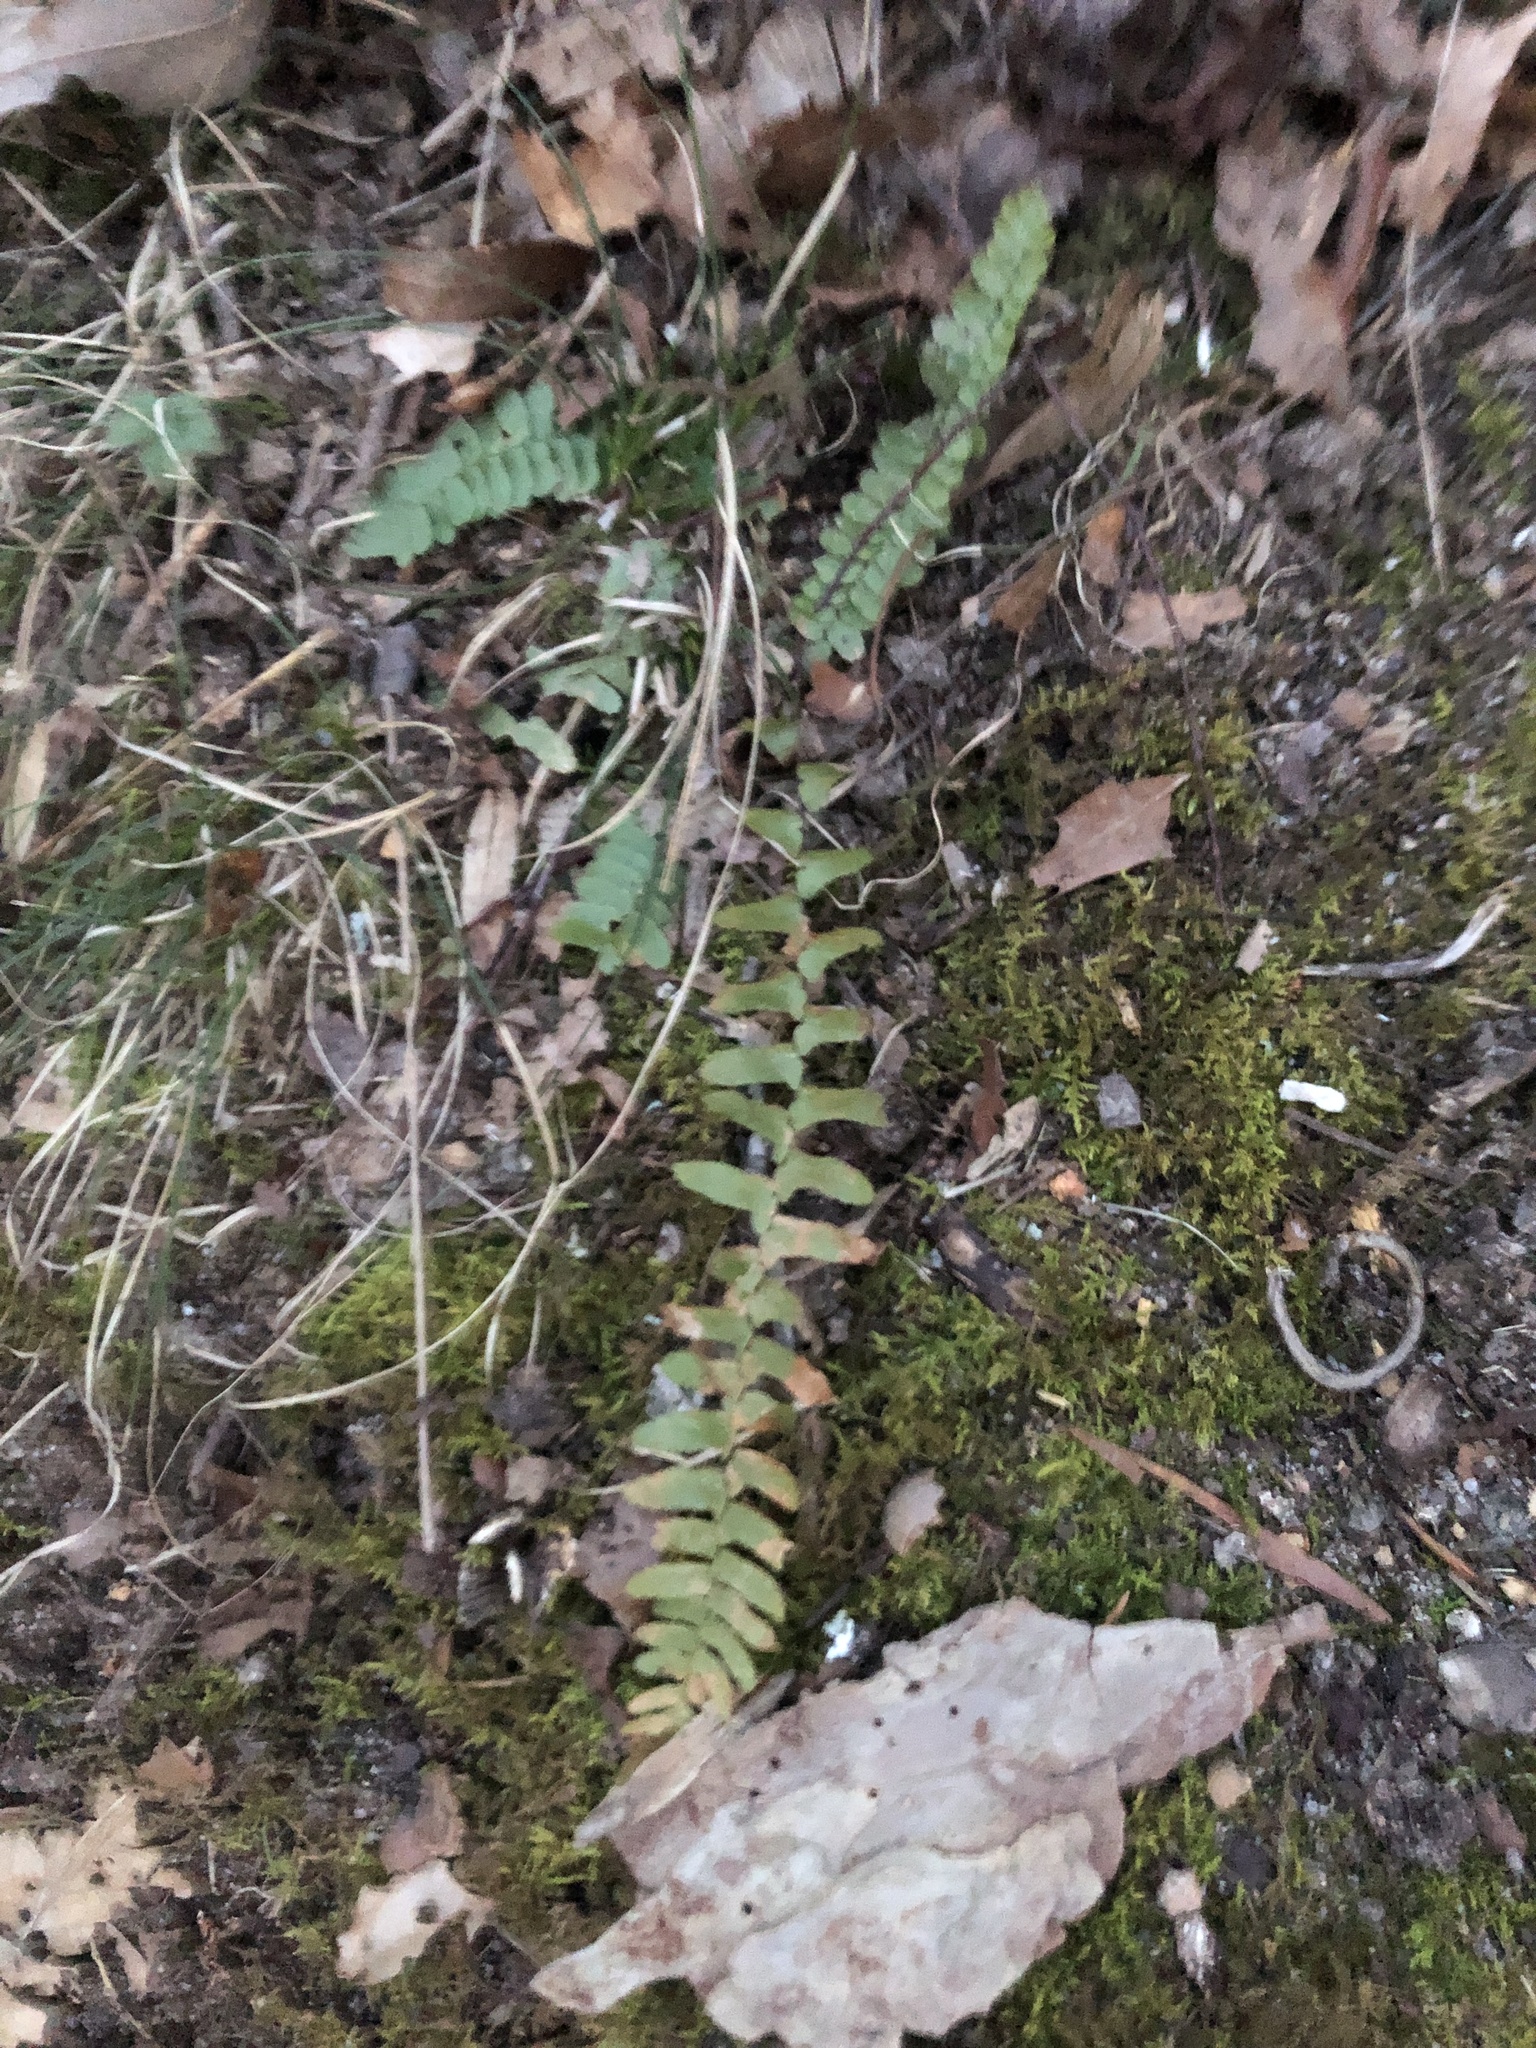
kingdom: Plantae
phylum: Tracheophyta
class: Polypodiopsida
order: Polypodiales
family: Aspleniaceae
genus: Asplenium
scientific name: Asplenium platyneuron
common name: Ebony spleenwort
